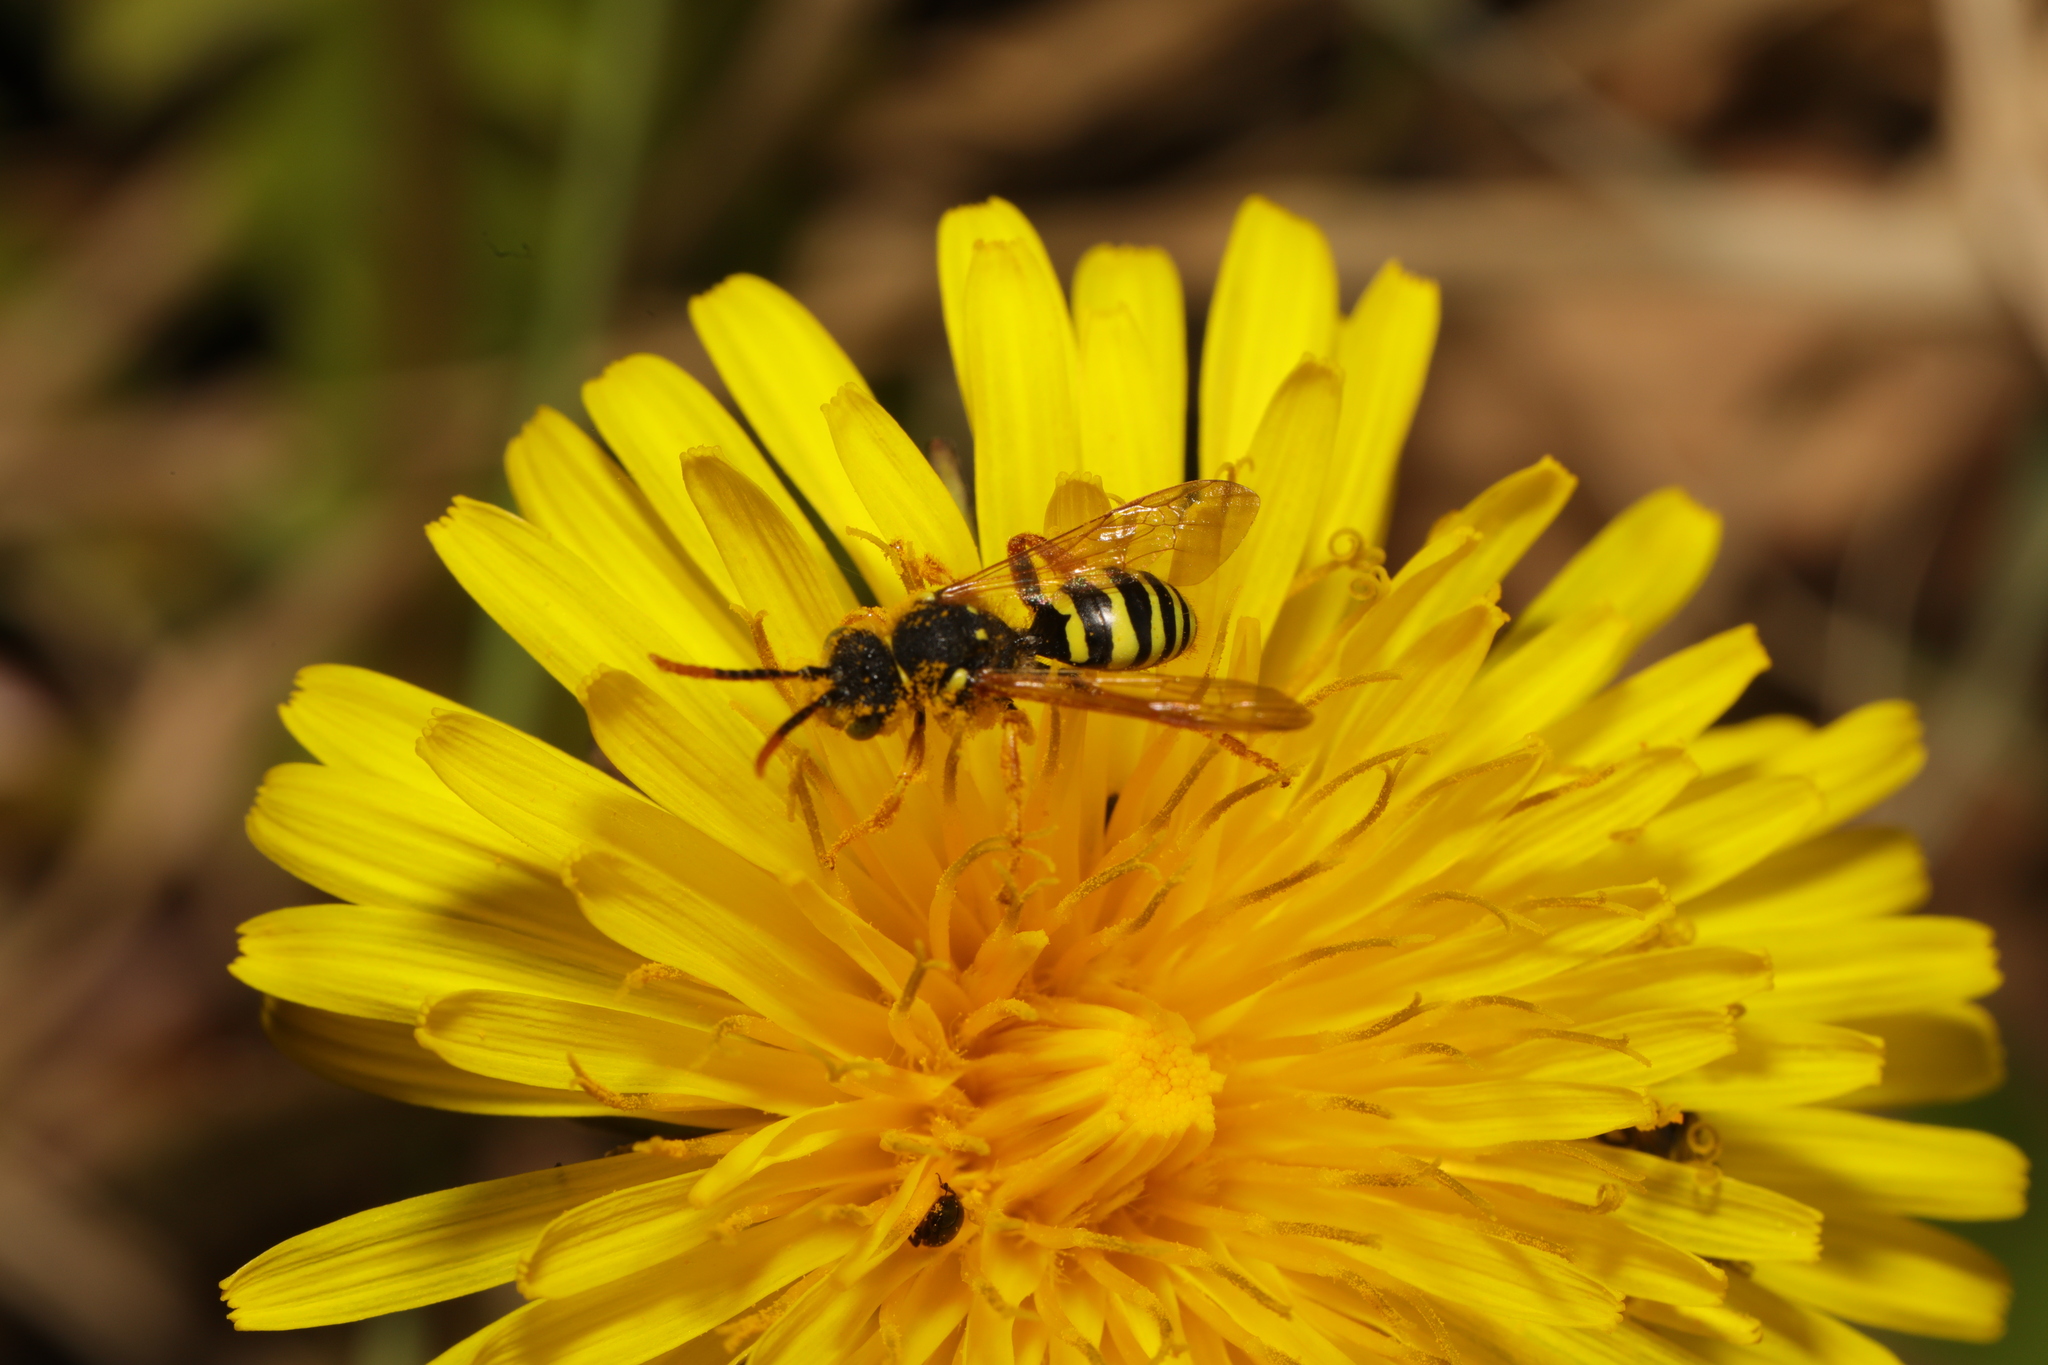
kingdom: Animalia
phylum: Arthropoda
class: Insecta
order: Hymenoptera
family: Apidae
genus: Nomada
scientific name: Nomada goodeniana
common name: Gooden's nomad bee
